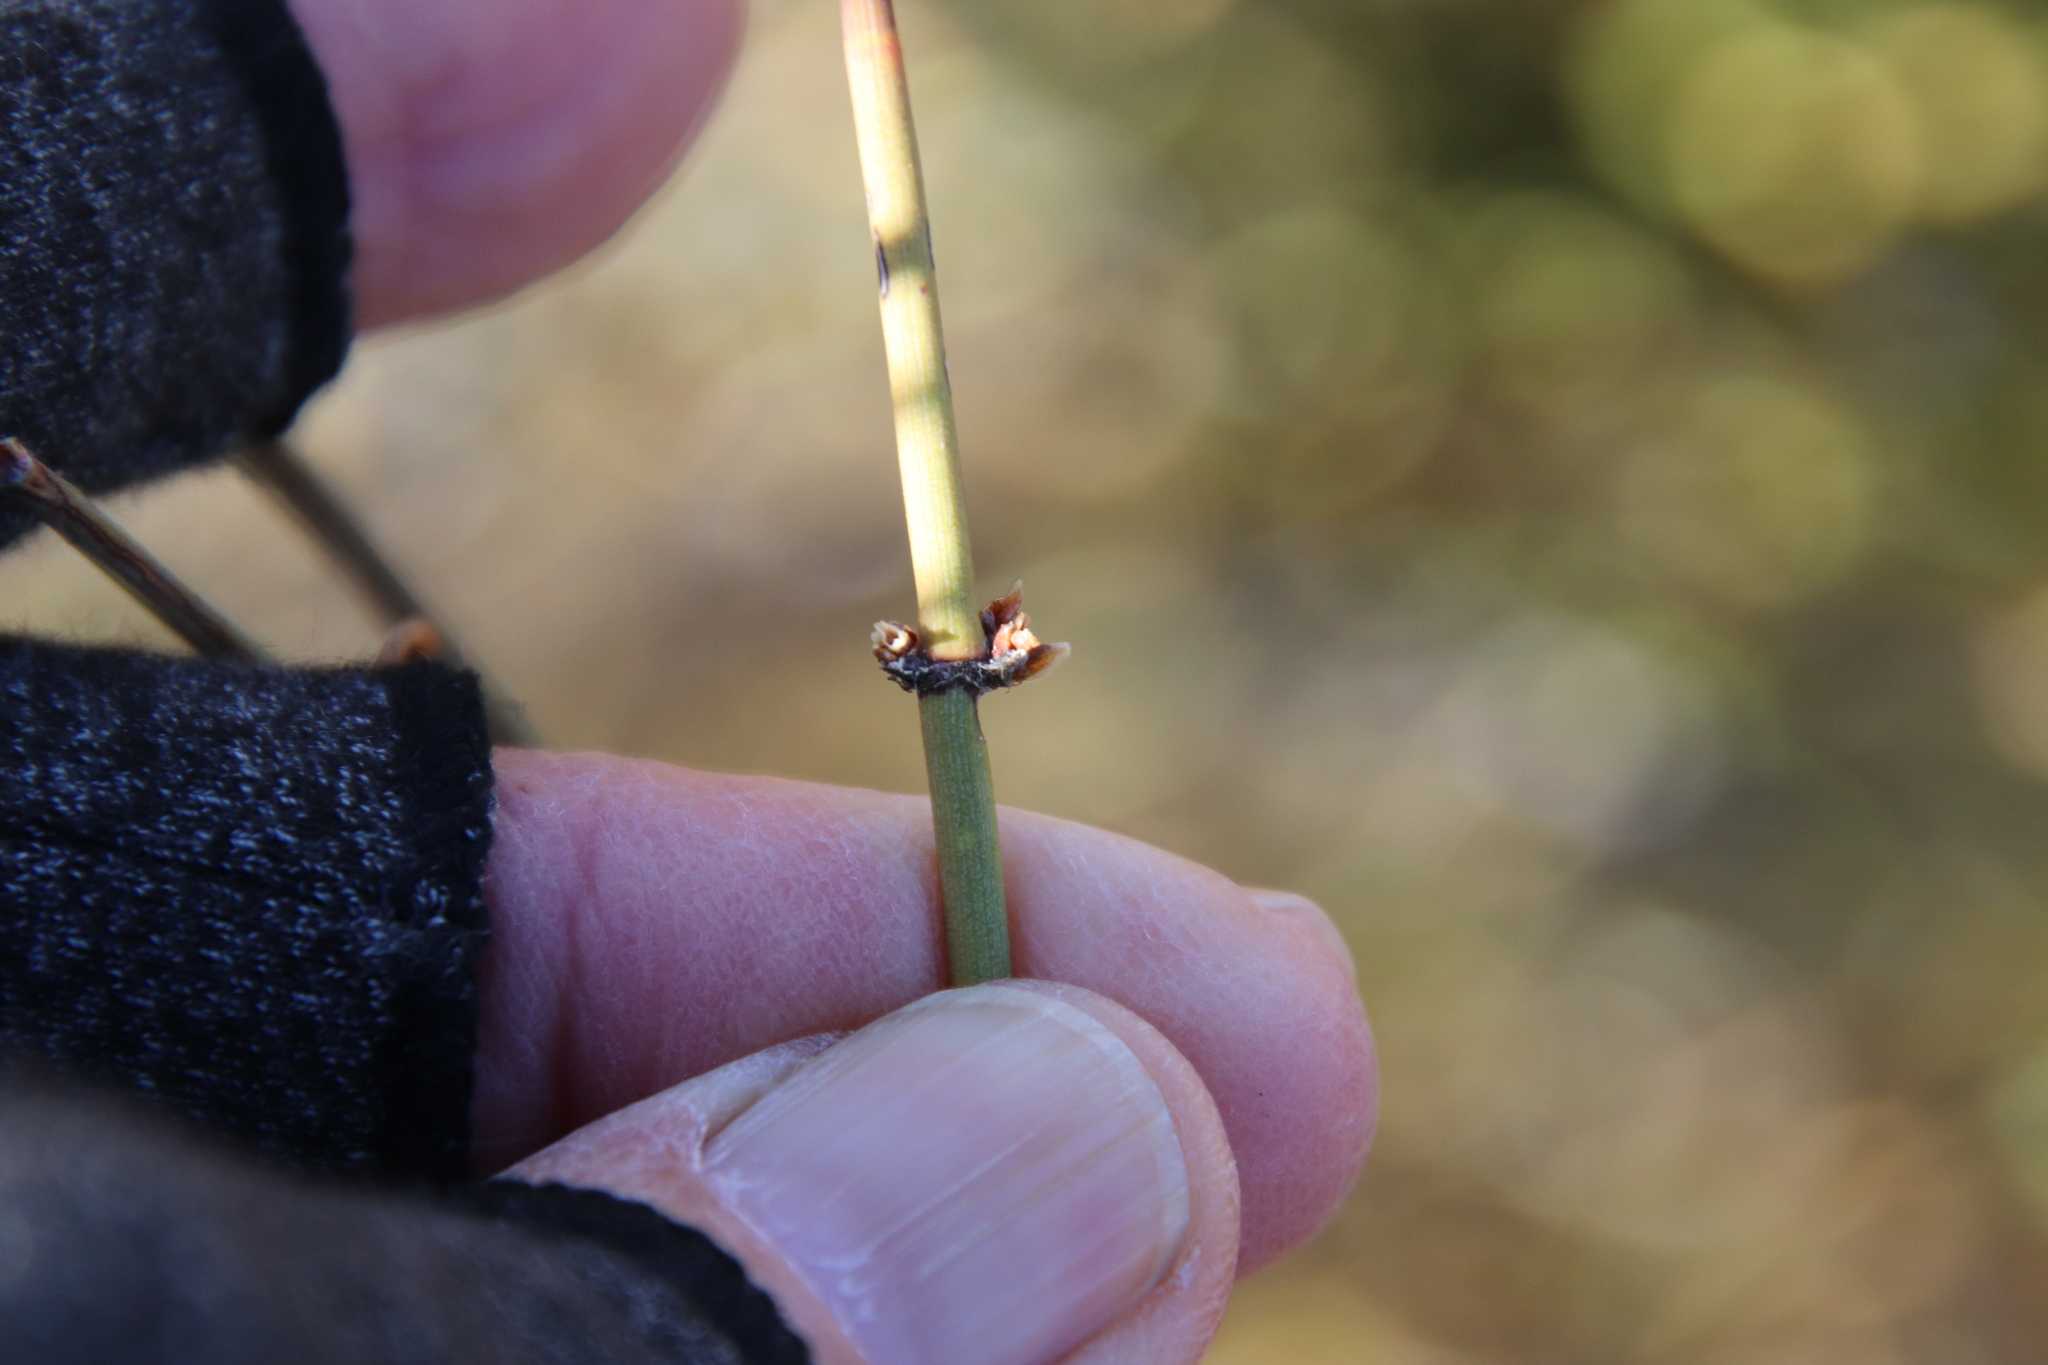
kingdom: Plantae
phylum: Tracheophyta
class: Gnetopsida
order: Ephedrales
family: Ephedraceae
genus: Ephedra
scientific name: Ephedra viridis
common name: Green ephedra
